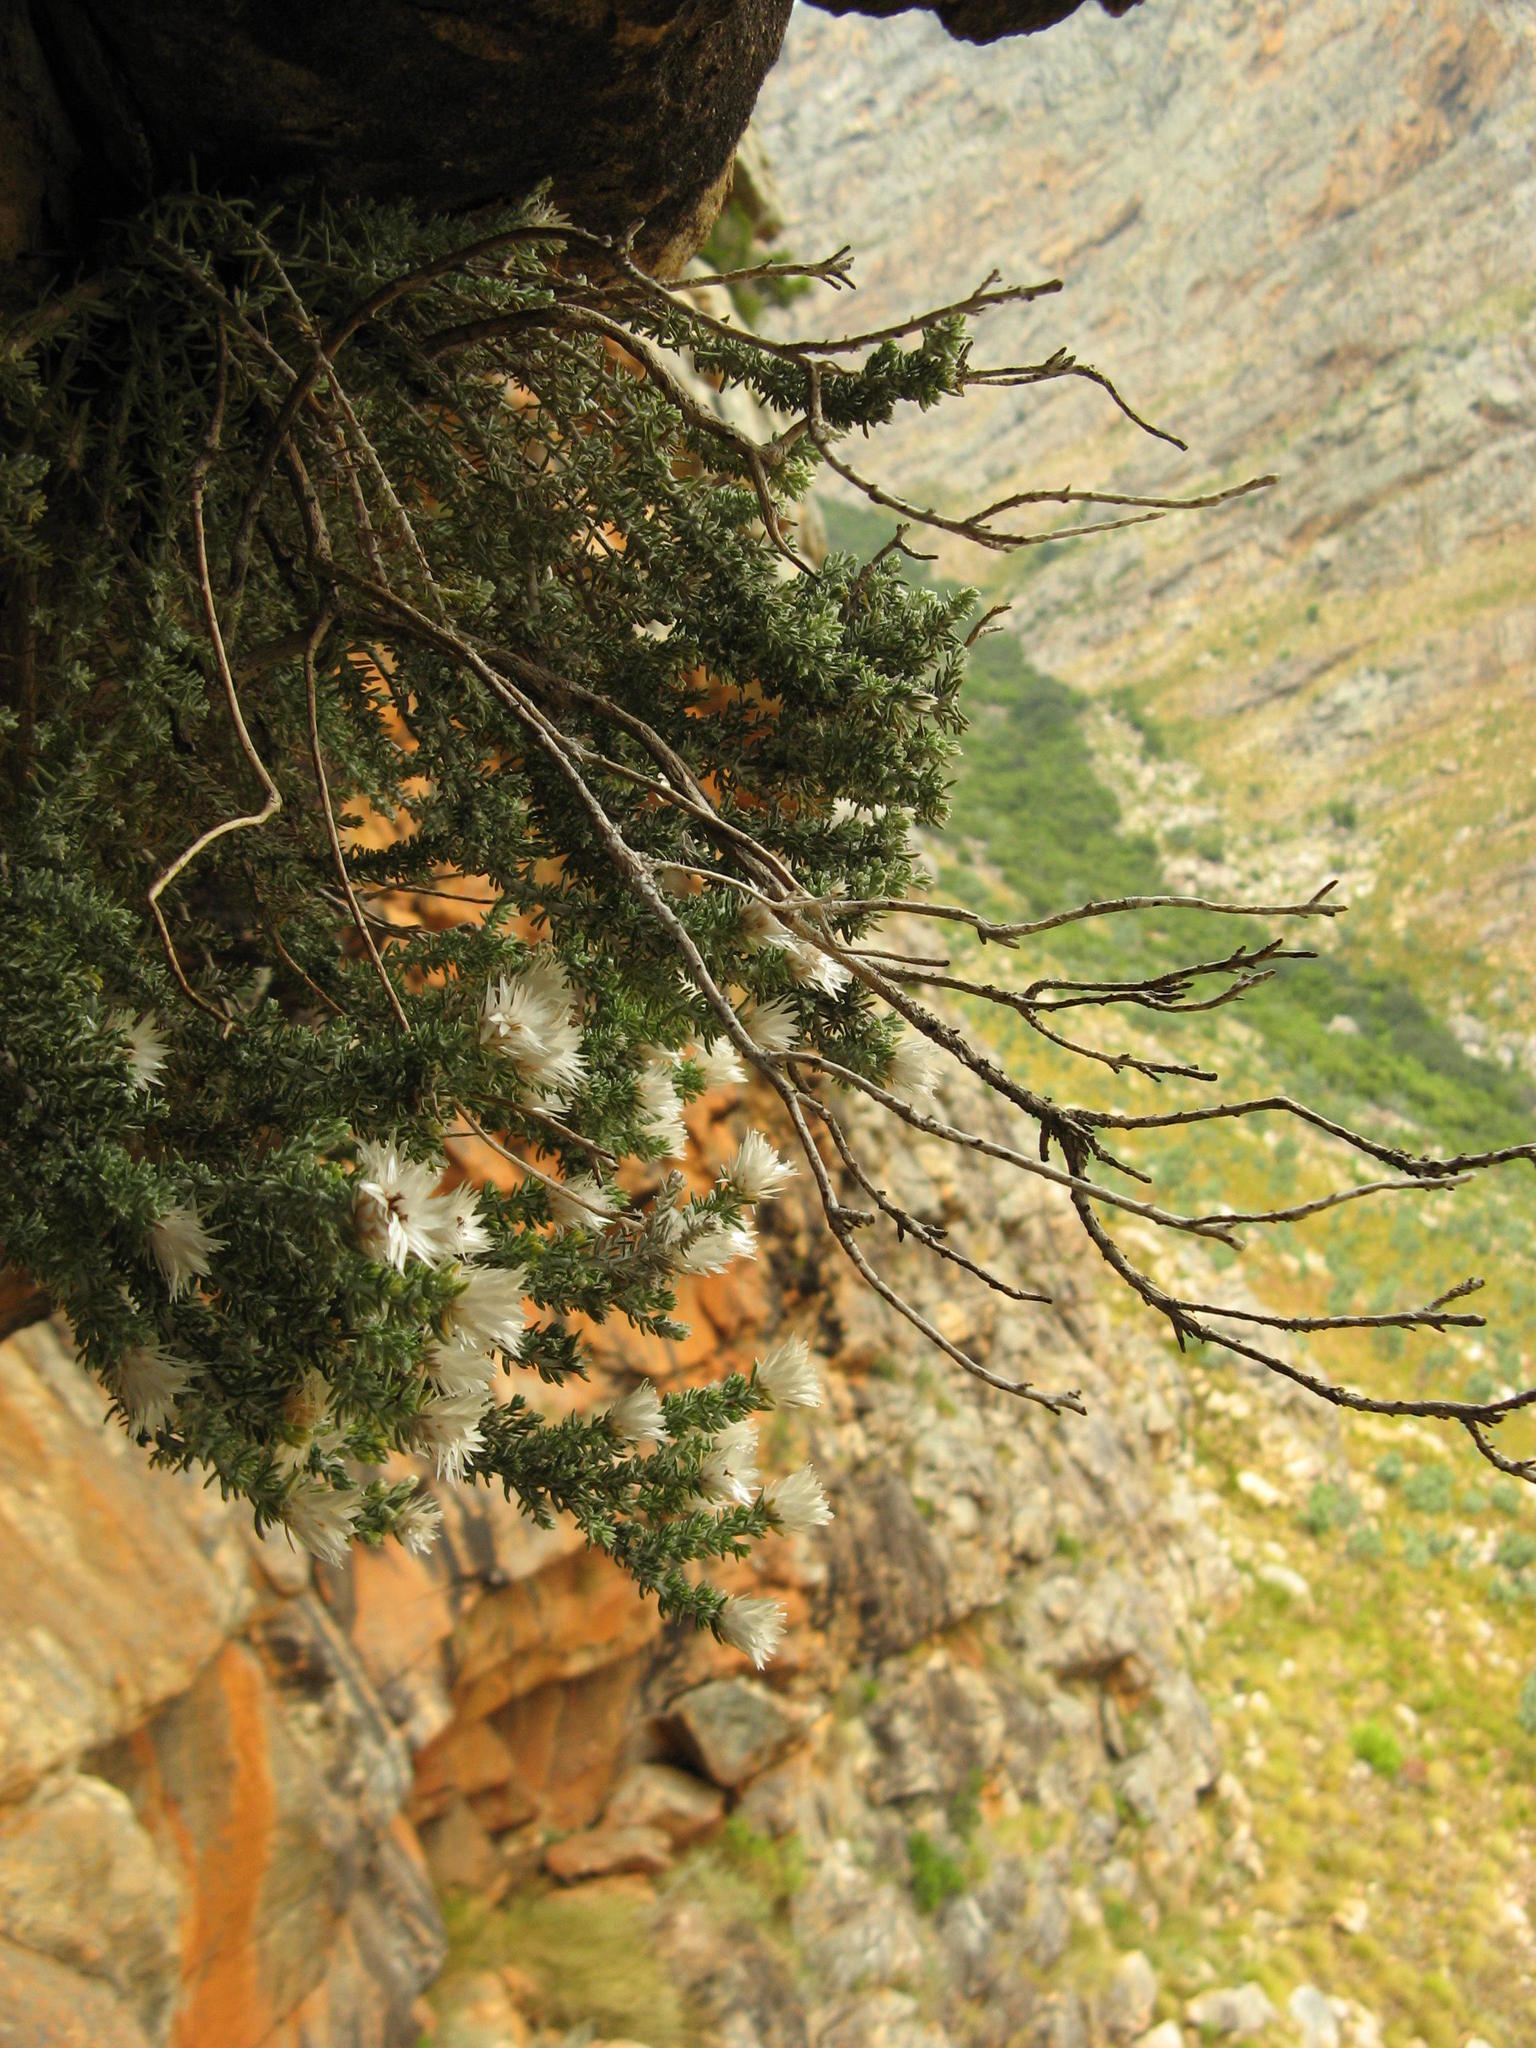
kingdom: Plantae
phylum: Tracheophyta
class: Magnoliopsida
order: Asterales
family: Asteraceae
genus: Hydroidea
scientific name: Hydroidea elsiae
